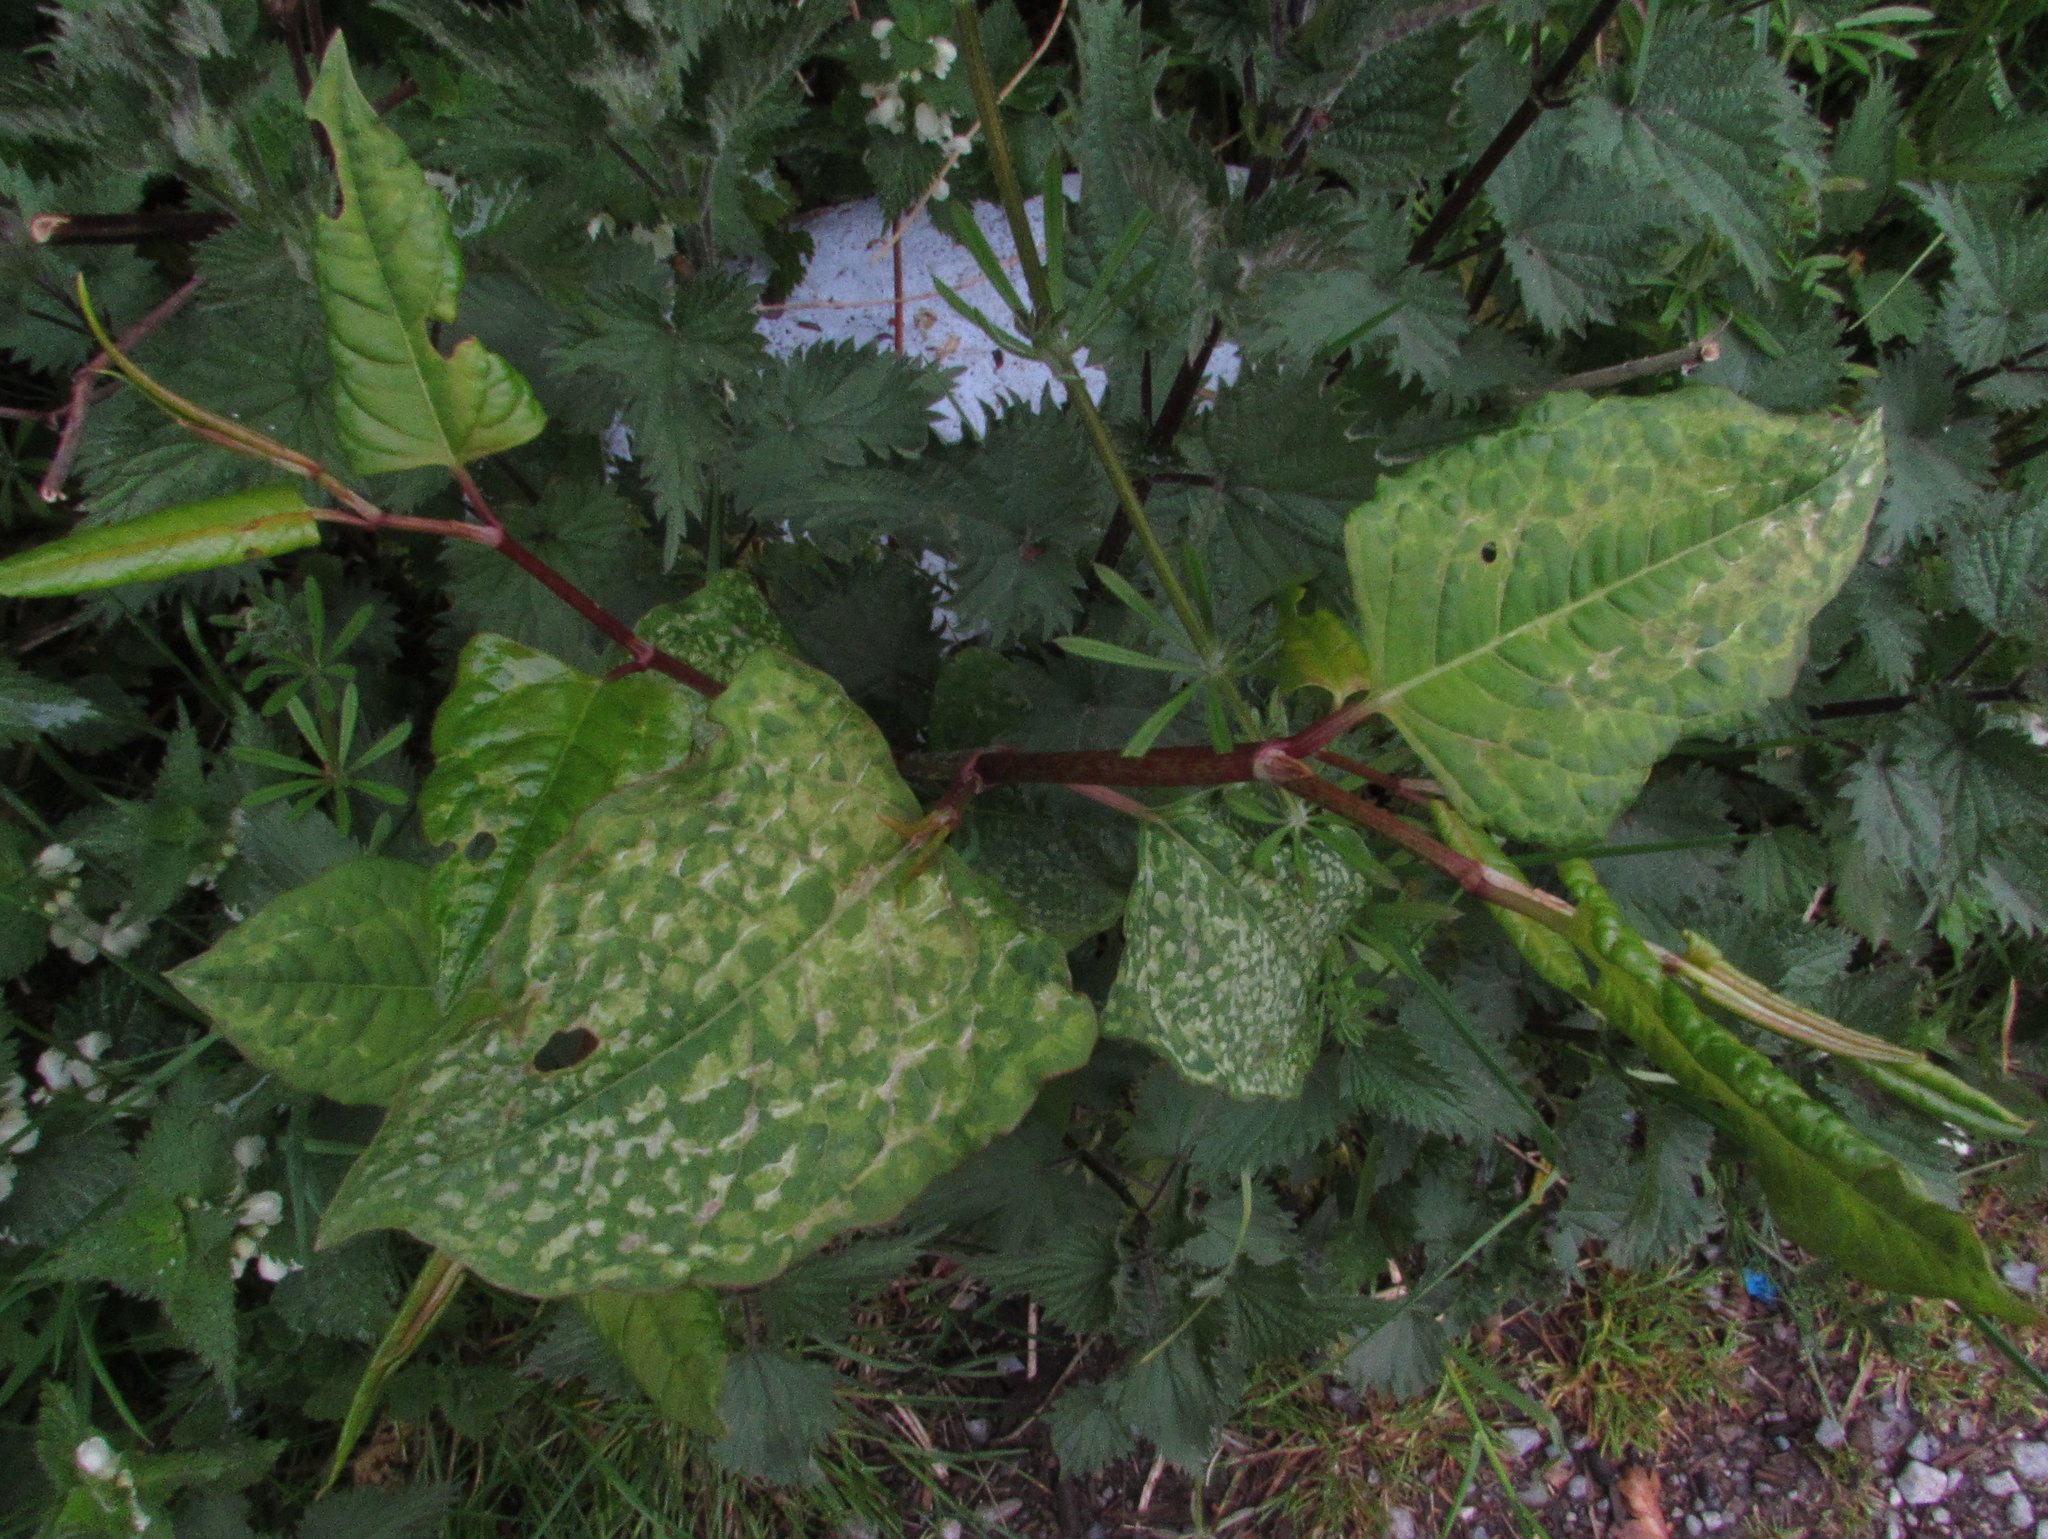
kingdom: Plantae
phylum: Tracheophyta
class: Magnoliopsida
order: Caryophyllales
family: Polygonaceae
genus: Reynoutria
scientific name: Reynoutria japonica
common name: Japanese knotweed
